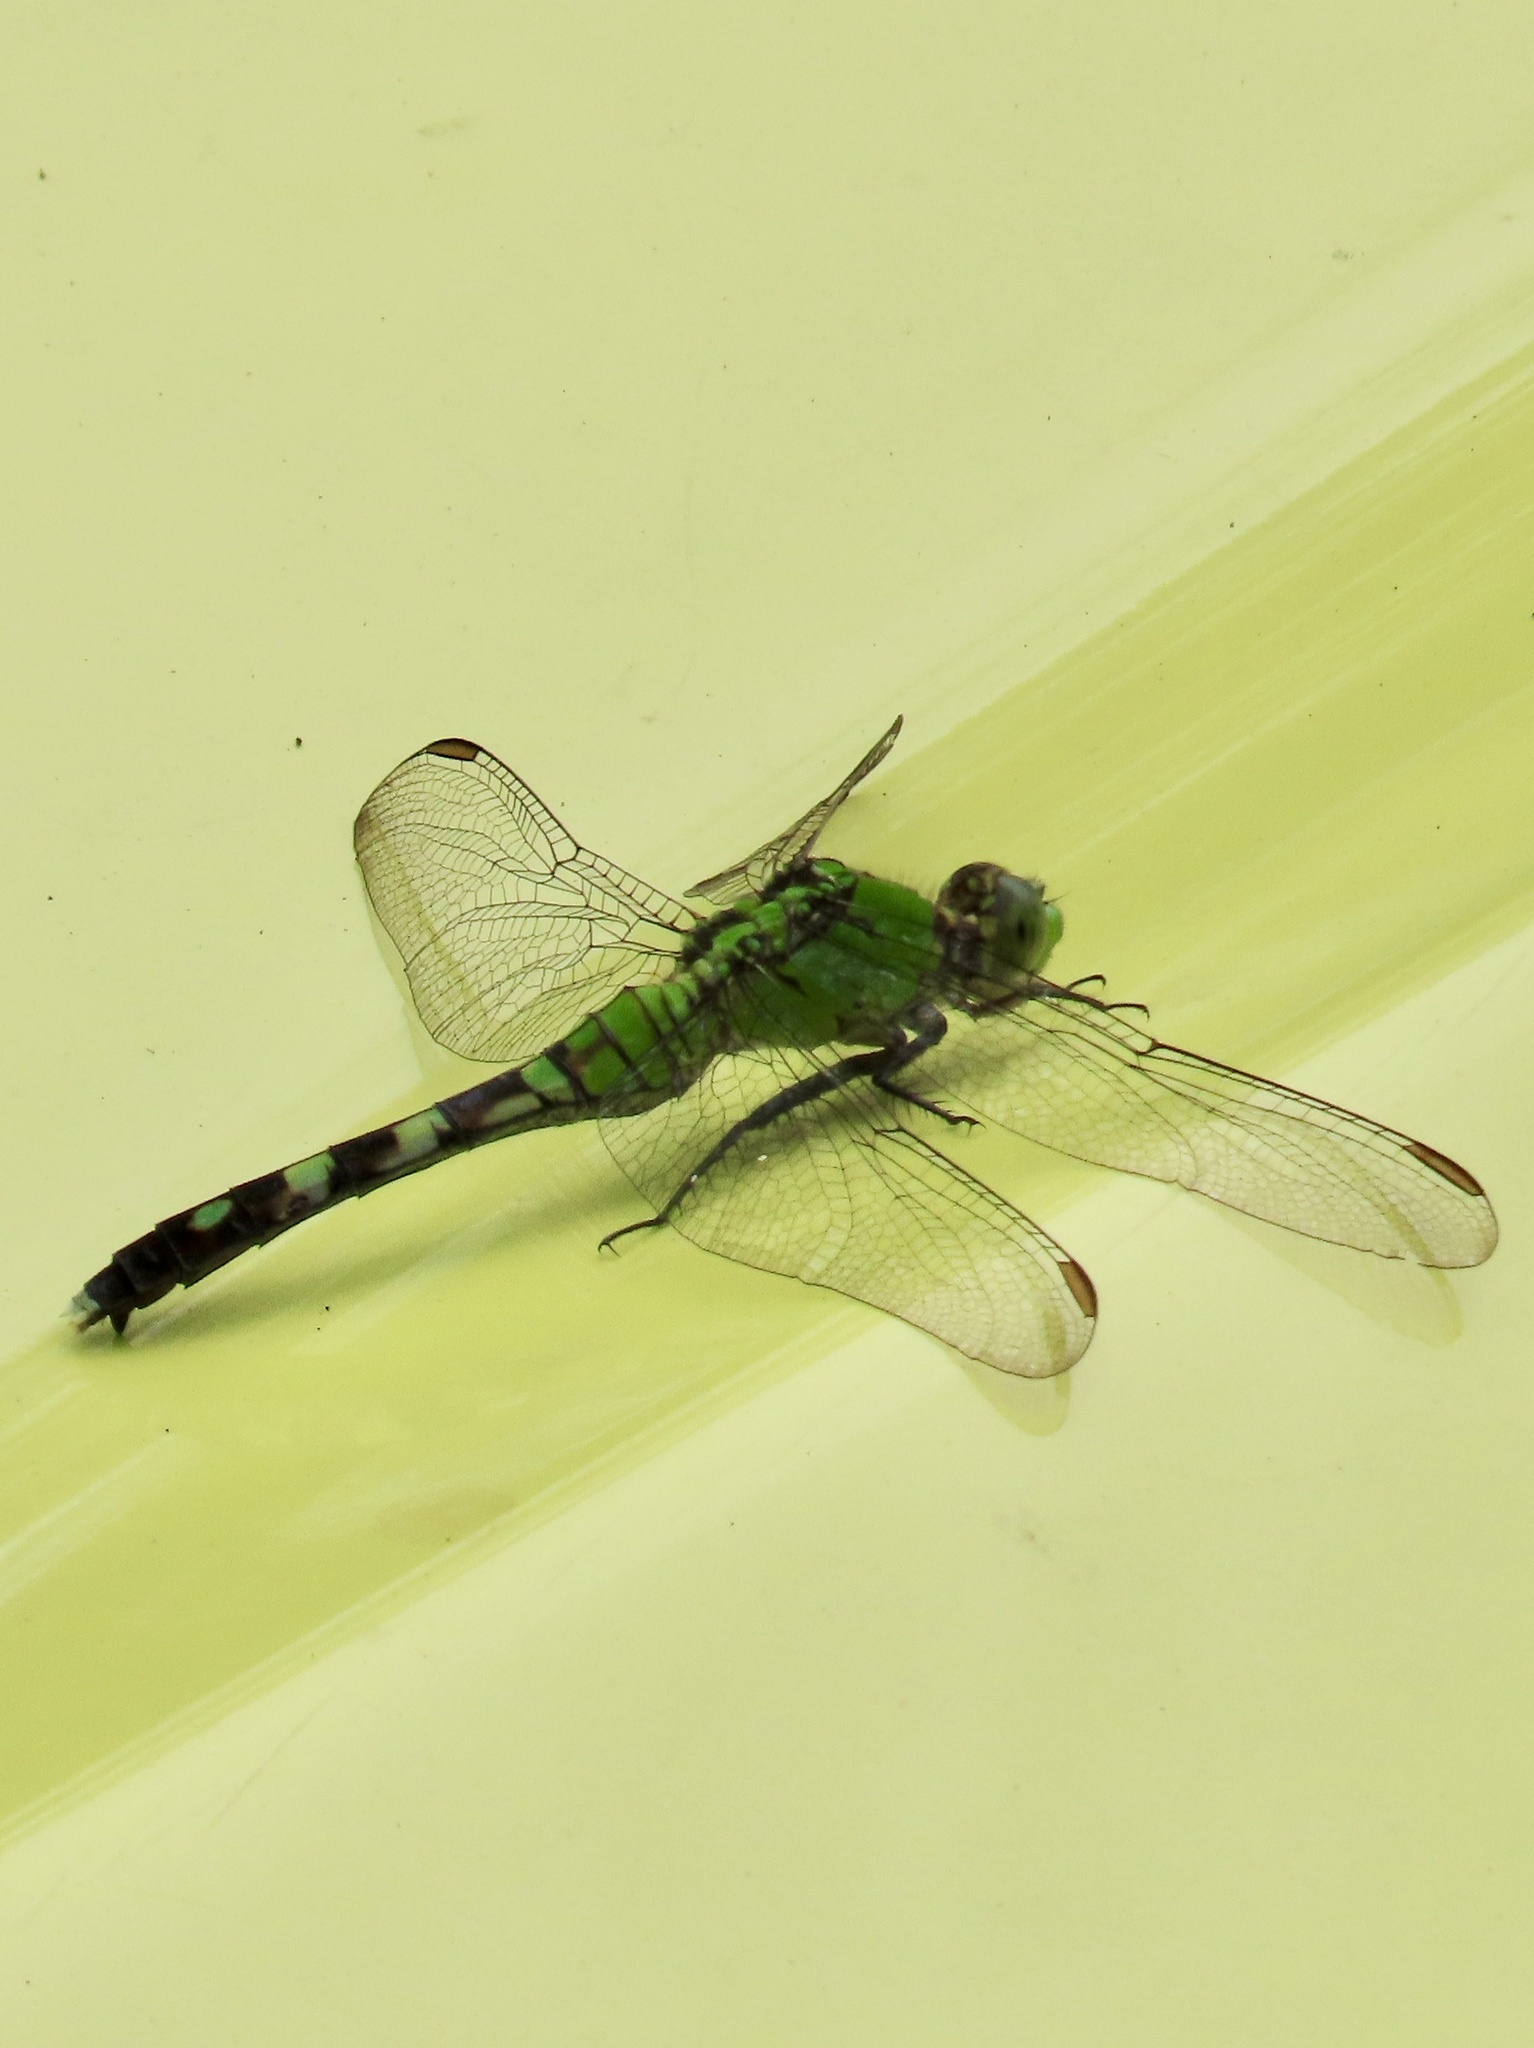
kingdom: Animalia
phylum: Arthropoda
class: Insecta
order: Odonata
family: Libellulidae
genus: Erythemis
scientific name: Erythemis simplicicollis
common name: Eastern pondhawk
